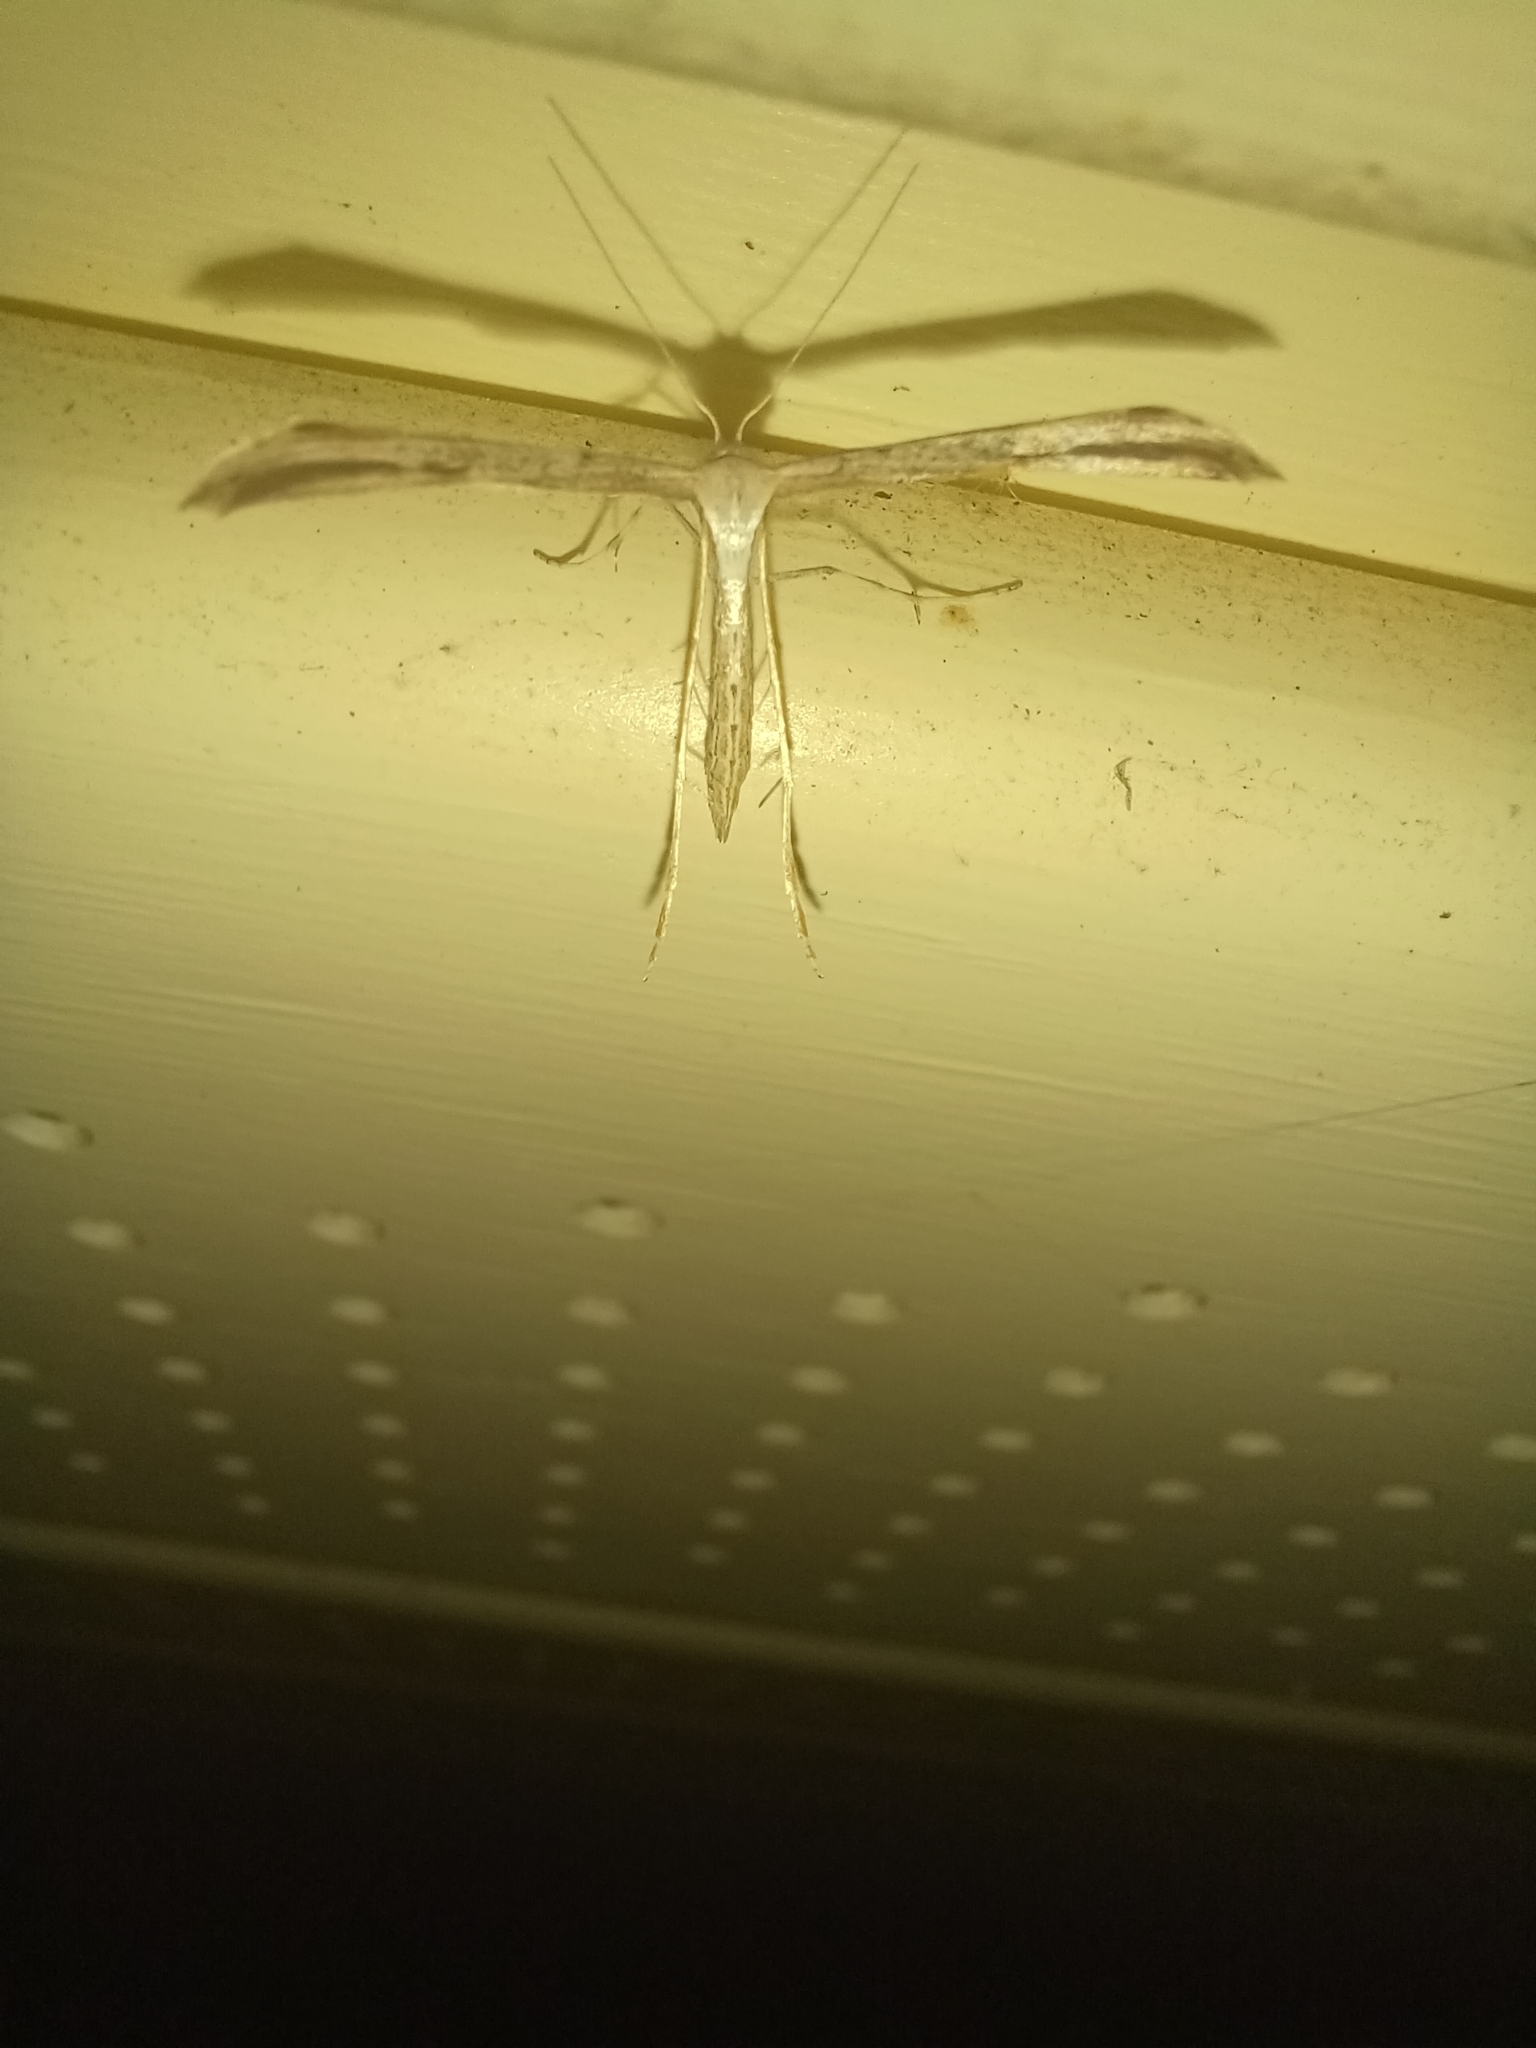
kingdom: Animalia
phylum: Arthropoda
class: Insecta
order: Lepidoptera
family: Pterophoridae
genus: Emmelina
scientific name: Emmelina monodactyla
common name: Common plume
